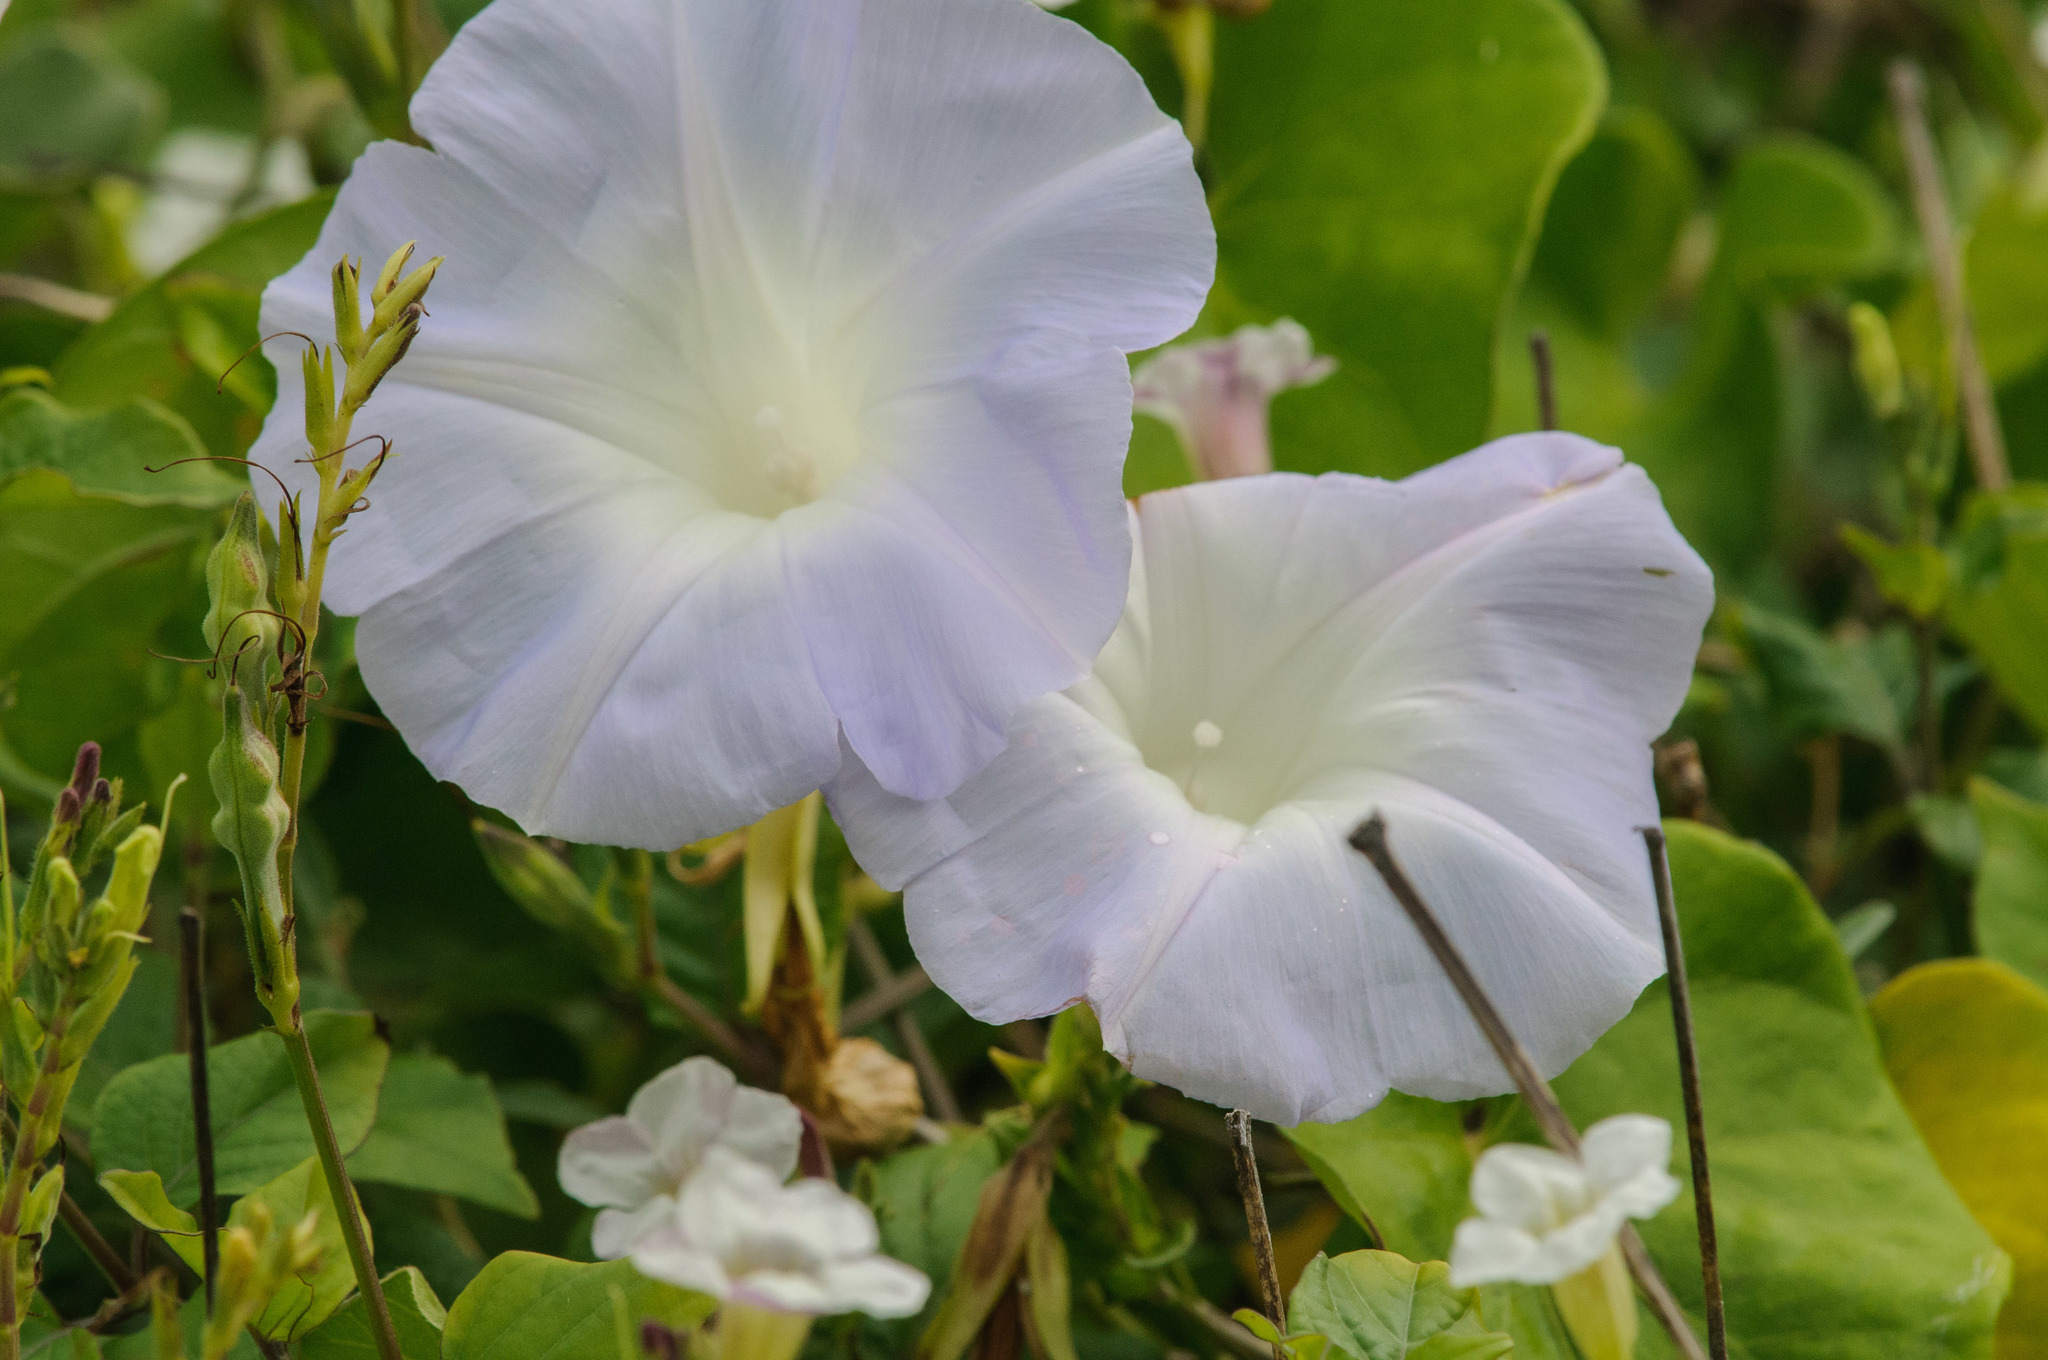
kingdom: Plantae
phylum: Tracheophyta
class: Magnoliopsida
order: Solanales
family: Convolvulaceae
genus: Ipomoea
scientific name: Ipomoea indica
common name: Blue dawnflower
